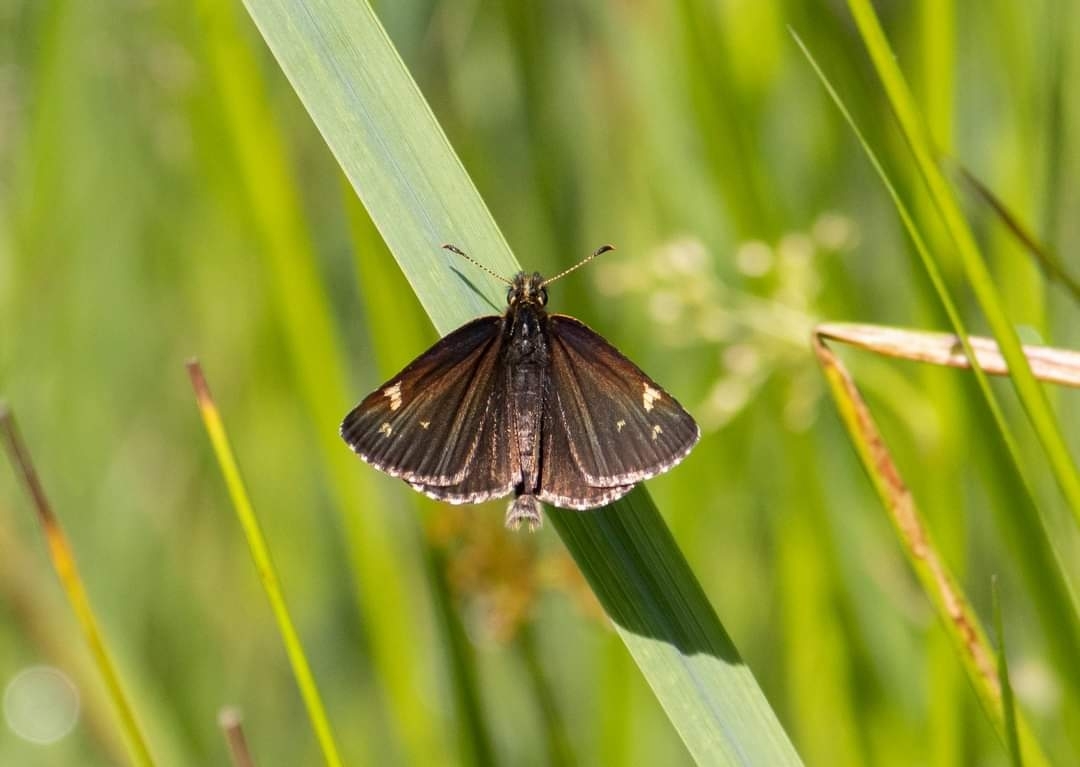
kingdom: Animalia
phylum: Arthropoda
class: Insecta
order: Lepidoptera
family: Hesperiidae
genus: Heteropterus
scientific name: Heteropterus morpheus
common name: Large chequered skipper
